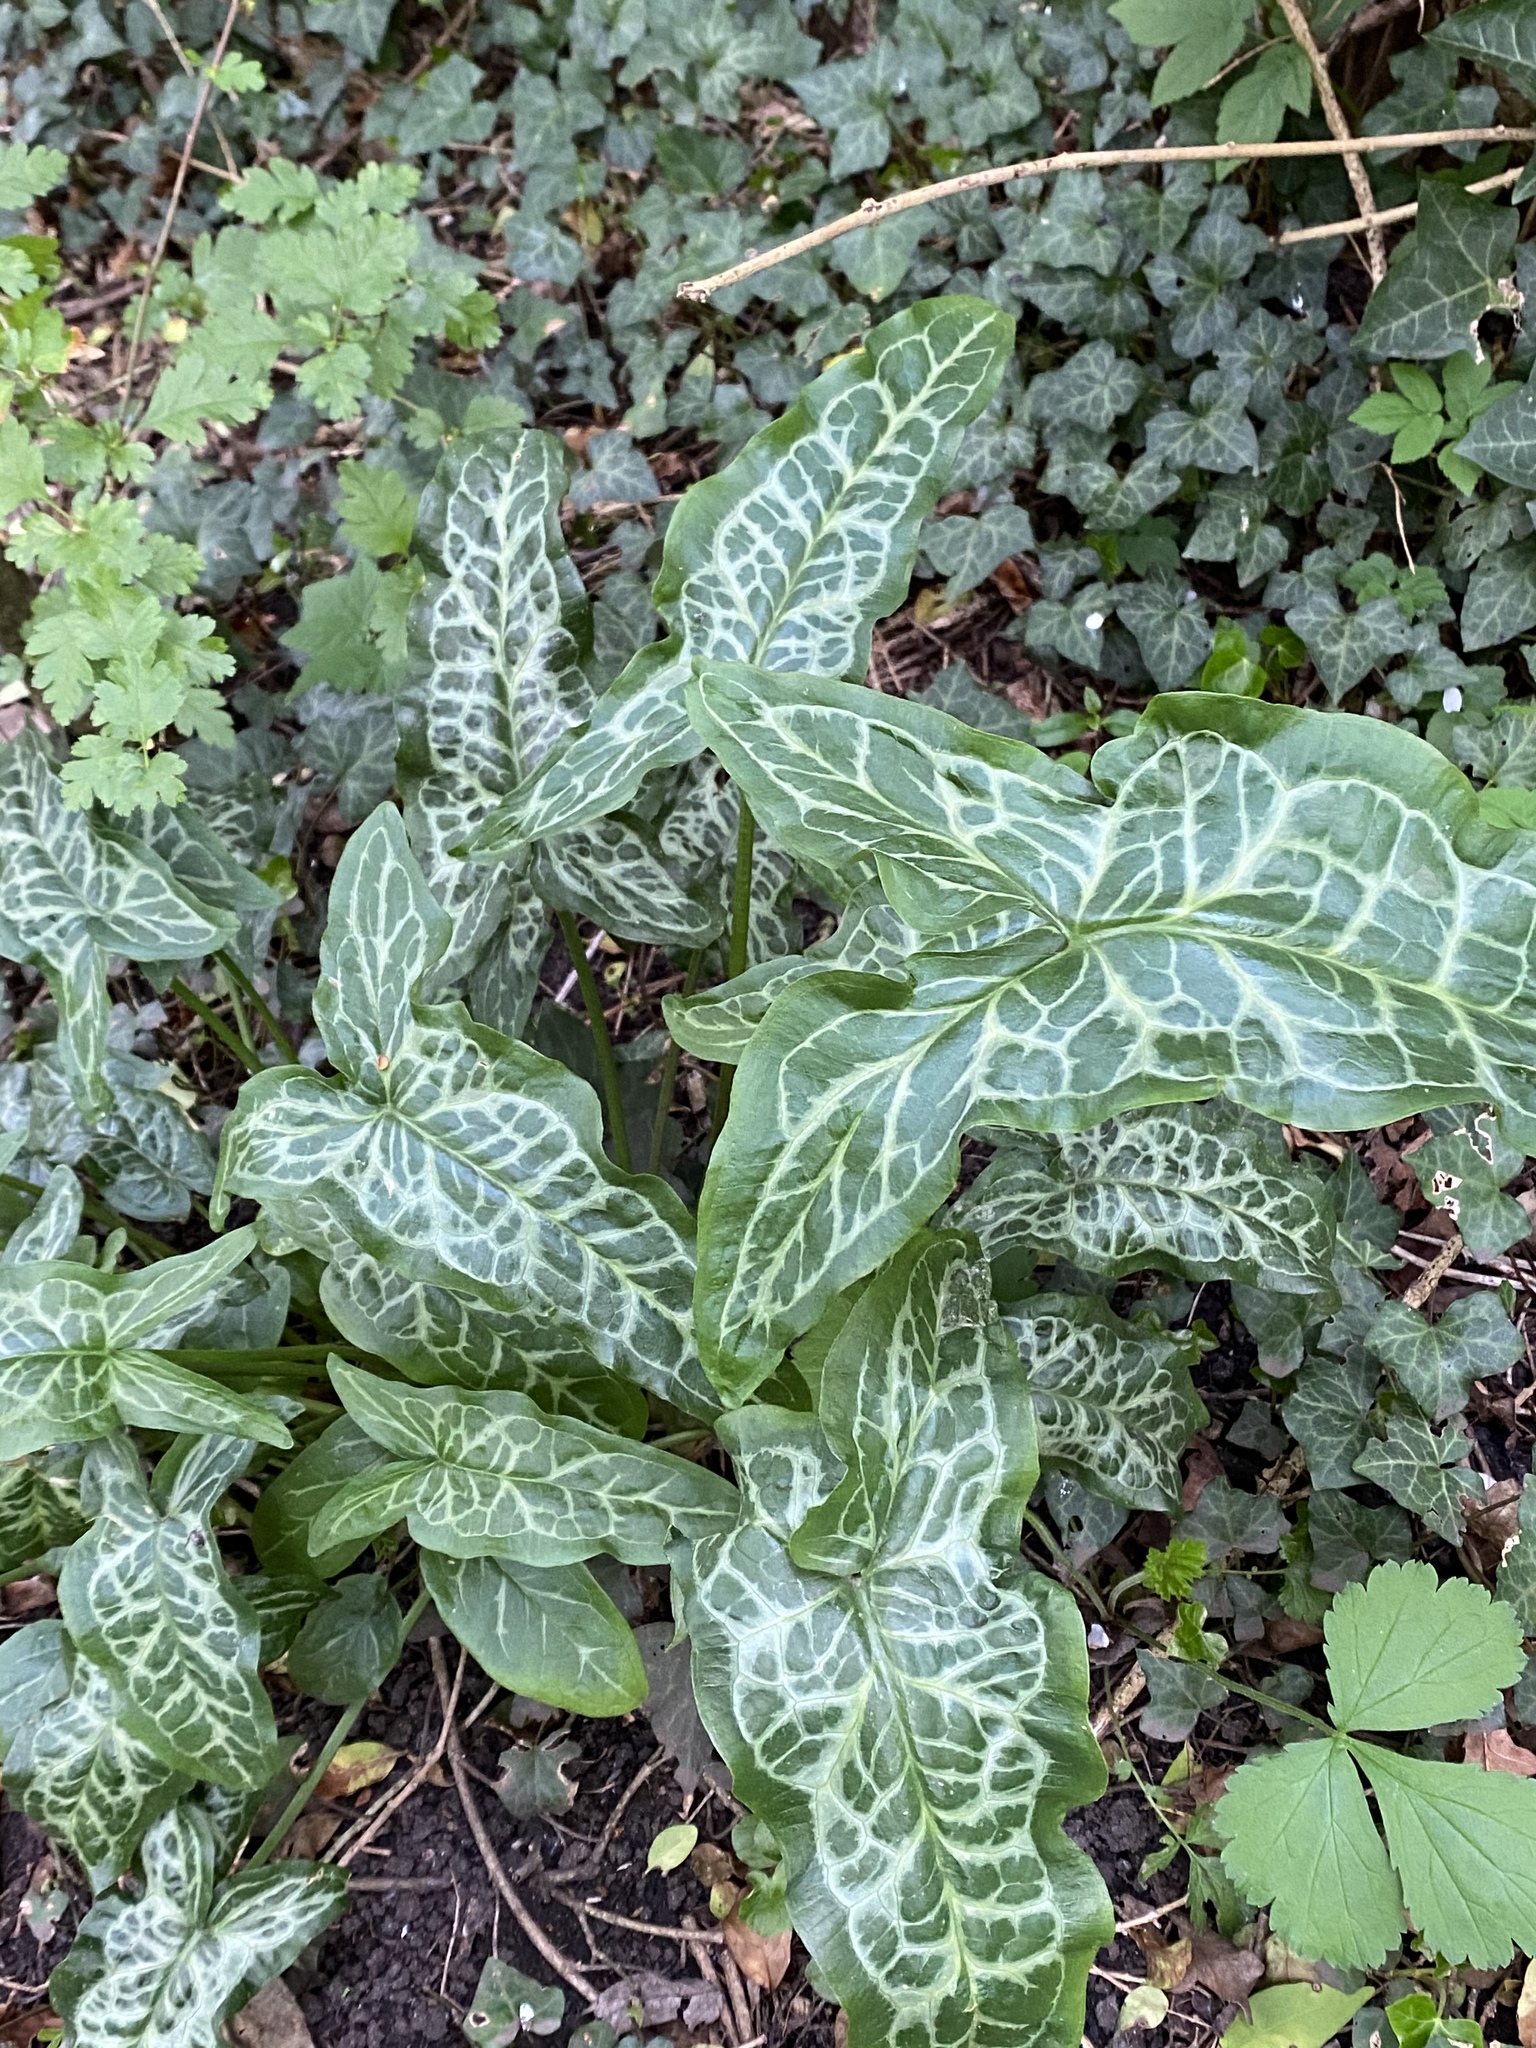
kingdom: Plantae
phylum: Tracheophyta
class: Liliopsida
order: Alismatales
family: Araceae
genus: Arum
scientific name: Arum italicum
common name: Italian lords-and-ladies
